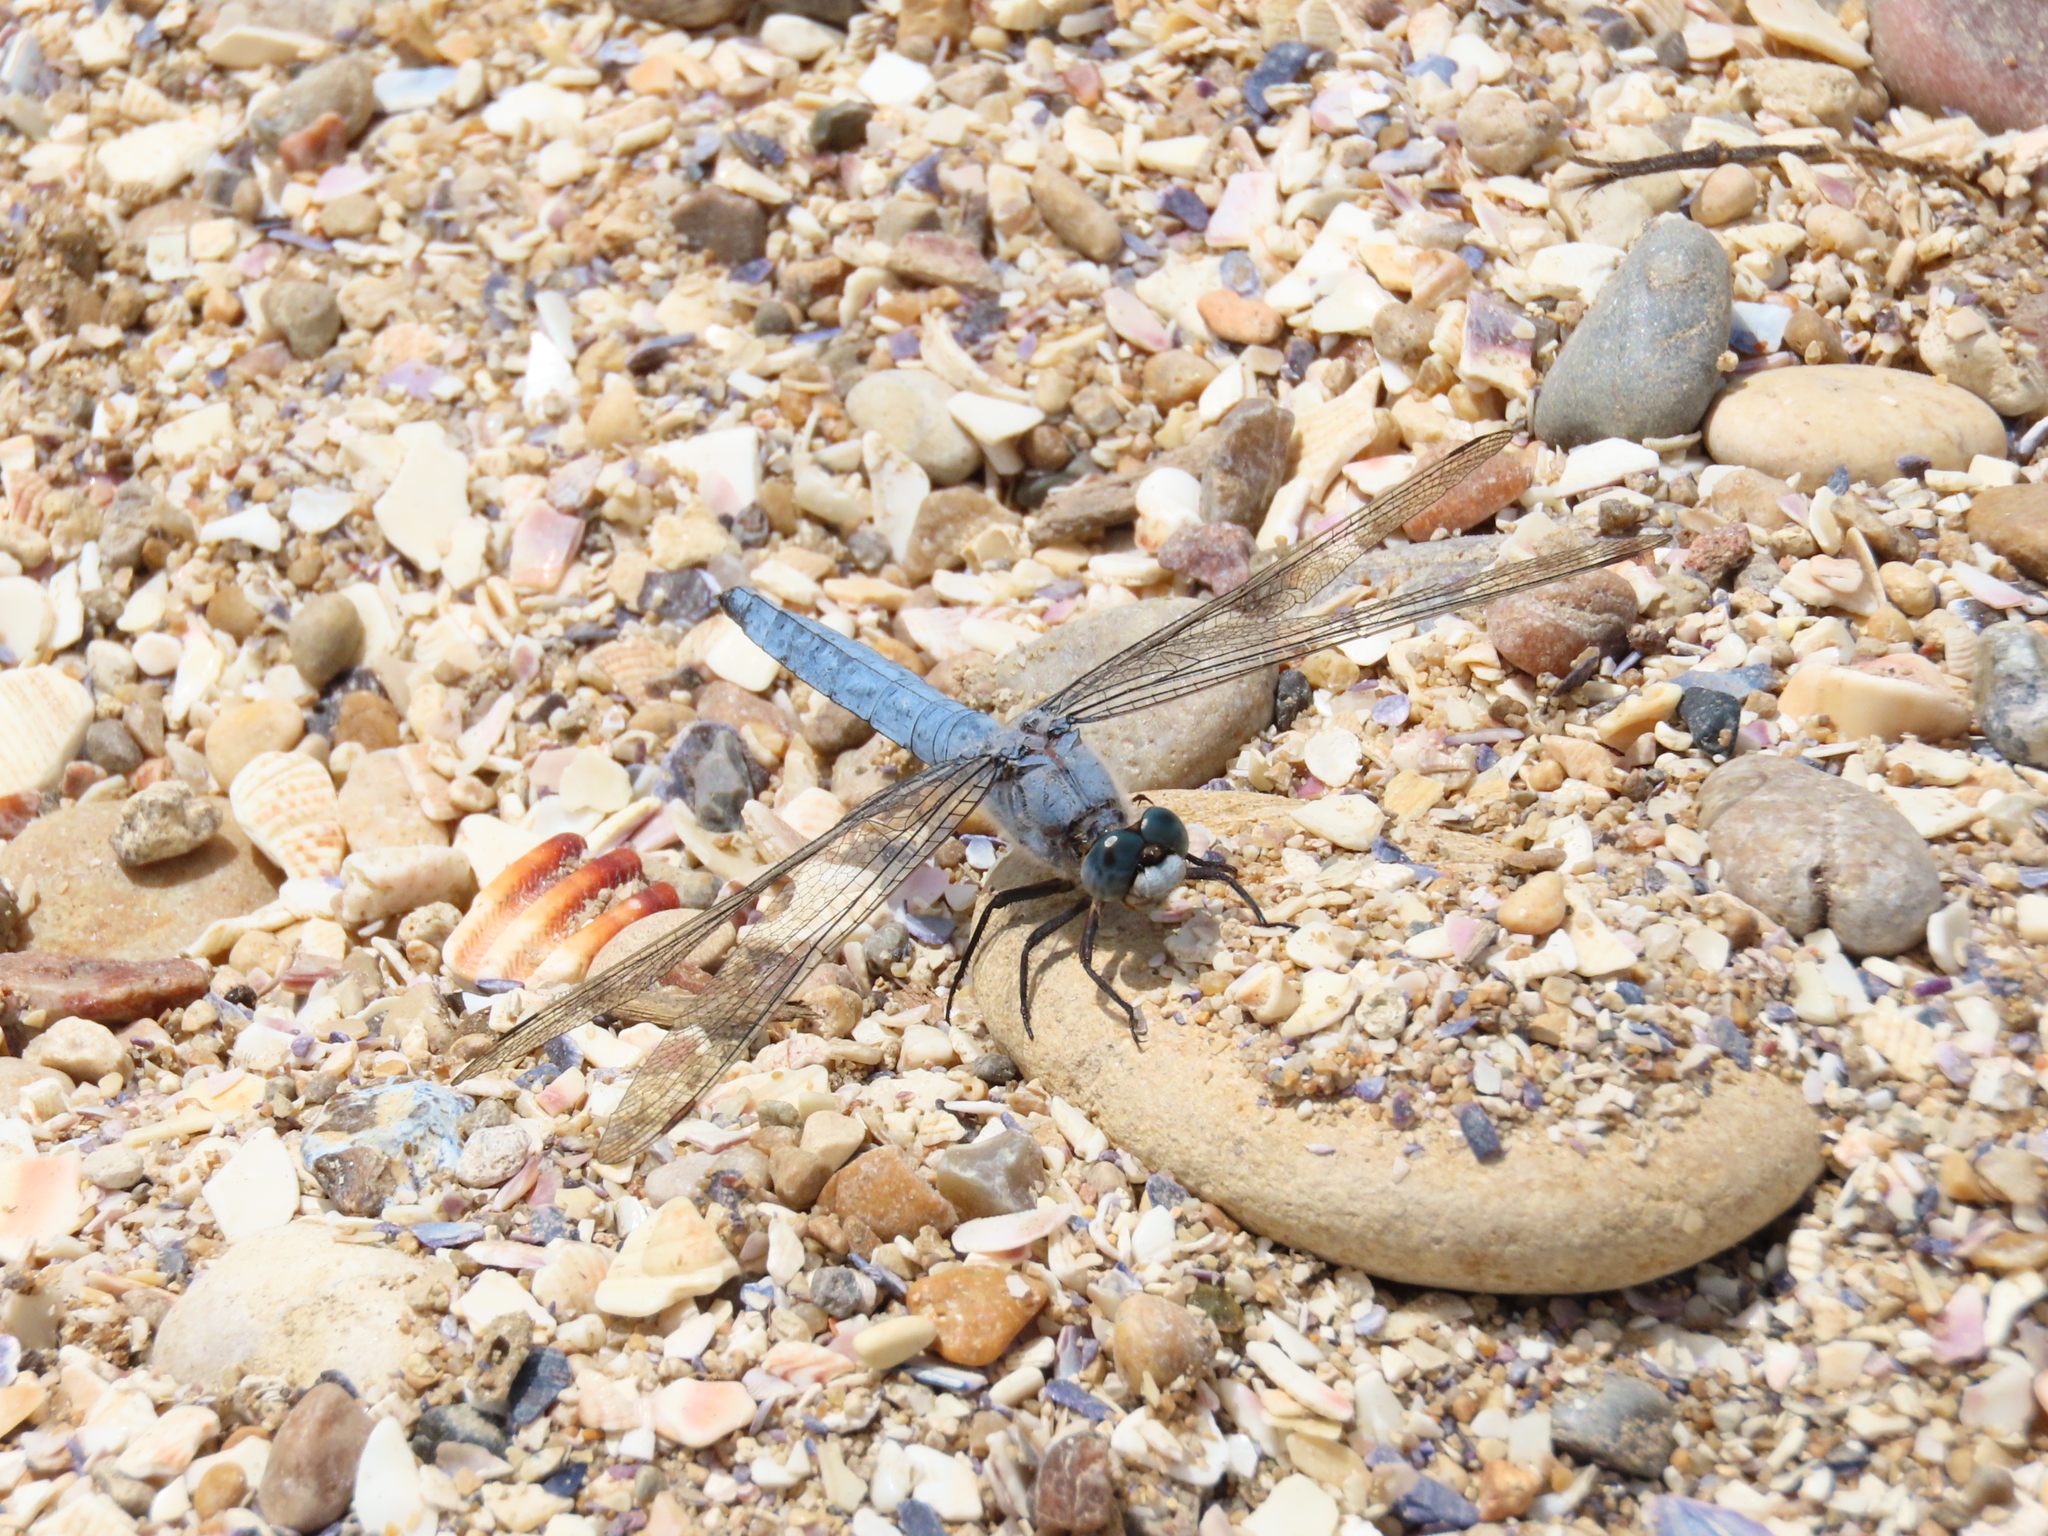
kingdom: Animalia
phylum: Arthropoda
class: Insecta
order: Odonata
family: Libellulidae
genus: Orthetrum
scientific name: Orthetrum brunneum
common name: Southern skimmer
